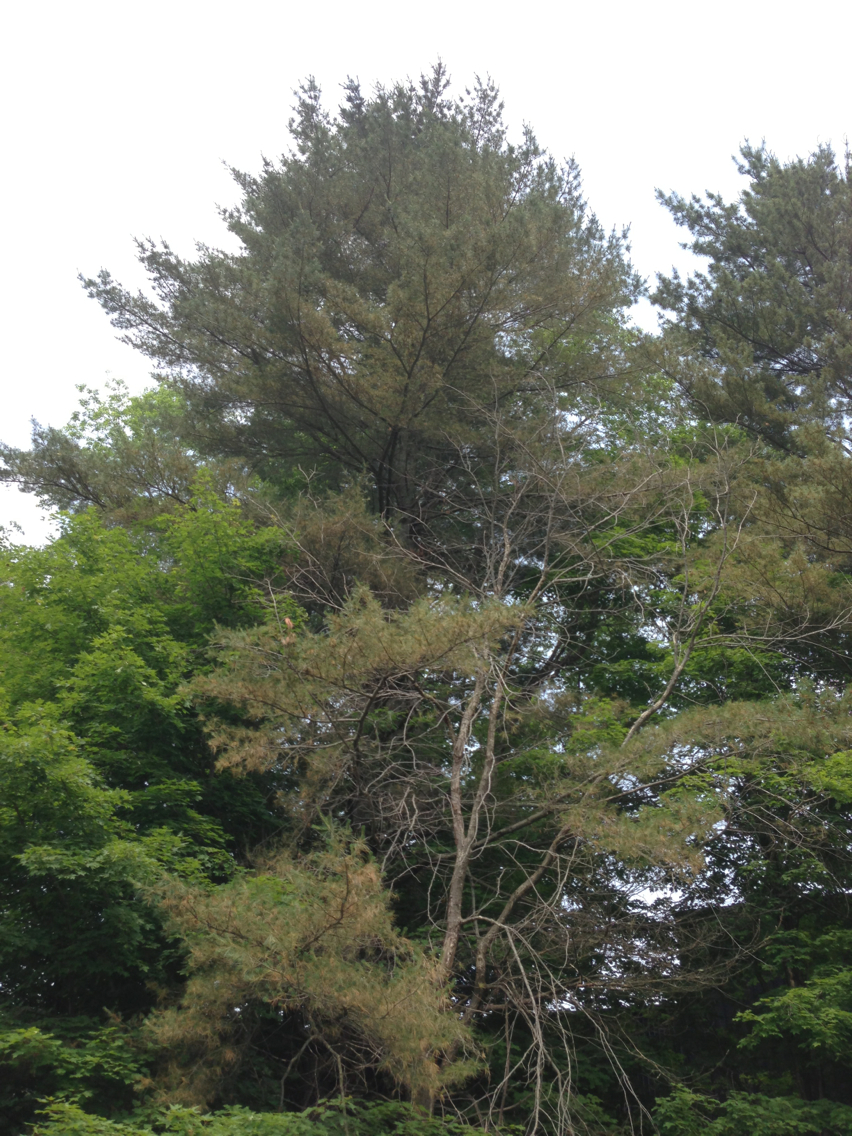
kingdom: Plantae
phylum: Tracheophyta
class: Pinopsida
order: Pinales
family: Pinaceae
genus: Pinus
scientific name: Pinus strobus
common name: Weymouth pine
